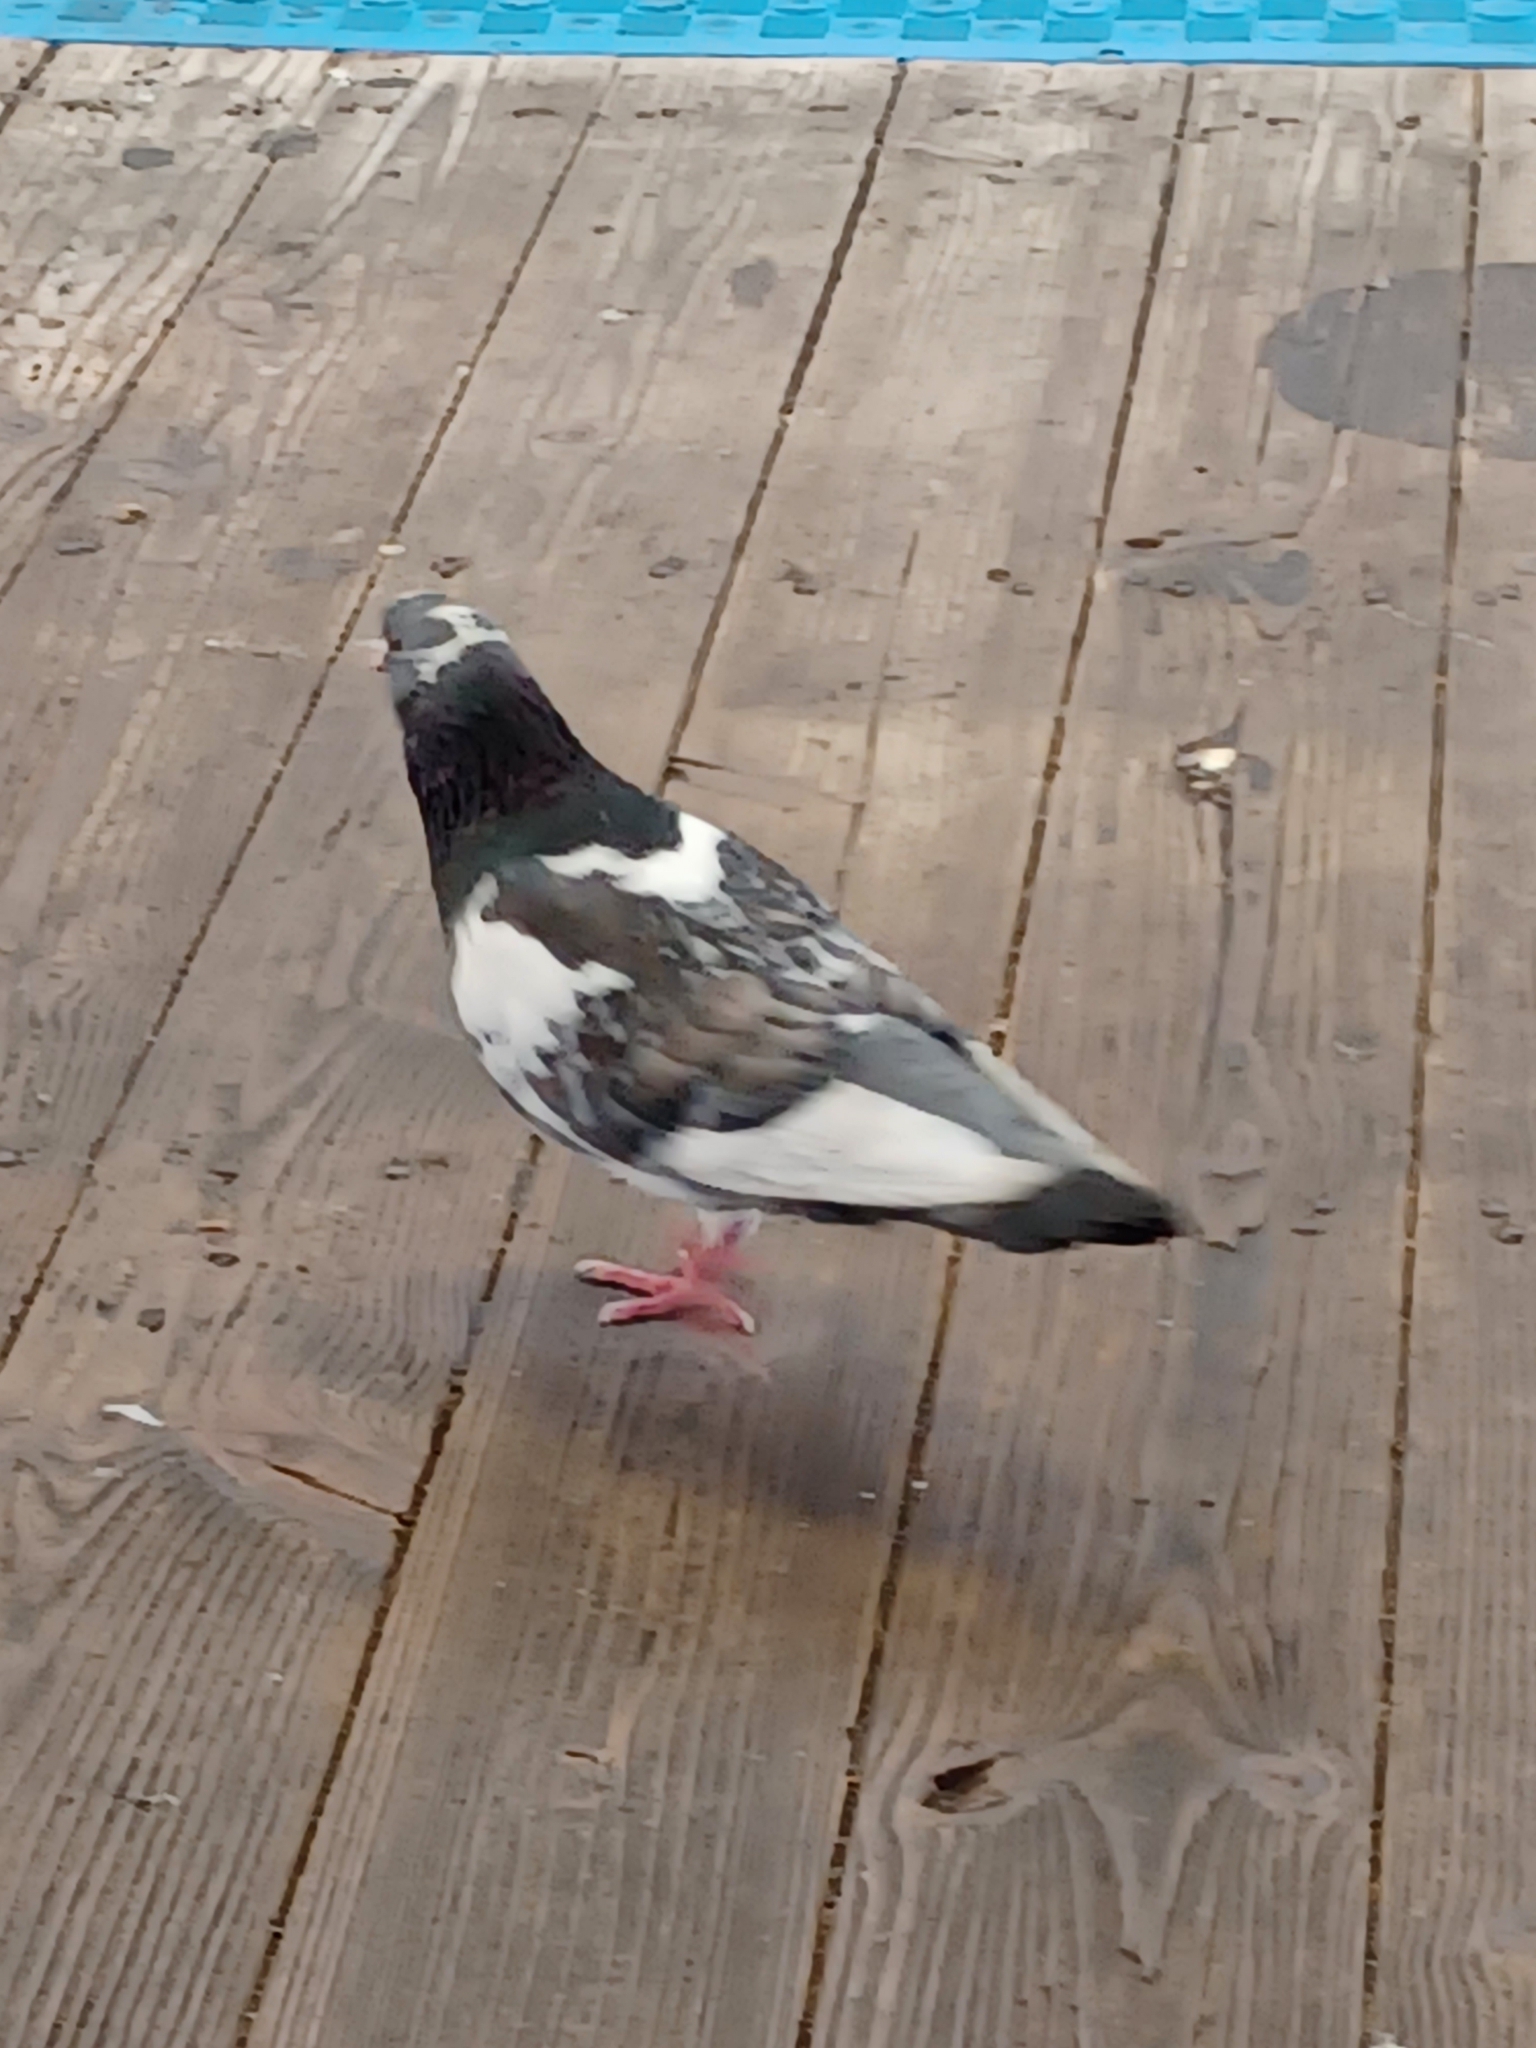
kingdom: Animalia
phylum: Chordata
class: Aves
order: Columbiformes
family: Columbidae
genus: Columba
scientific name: Columba livia
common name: Rock pigeon
